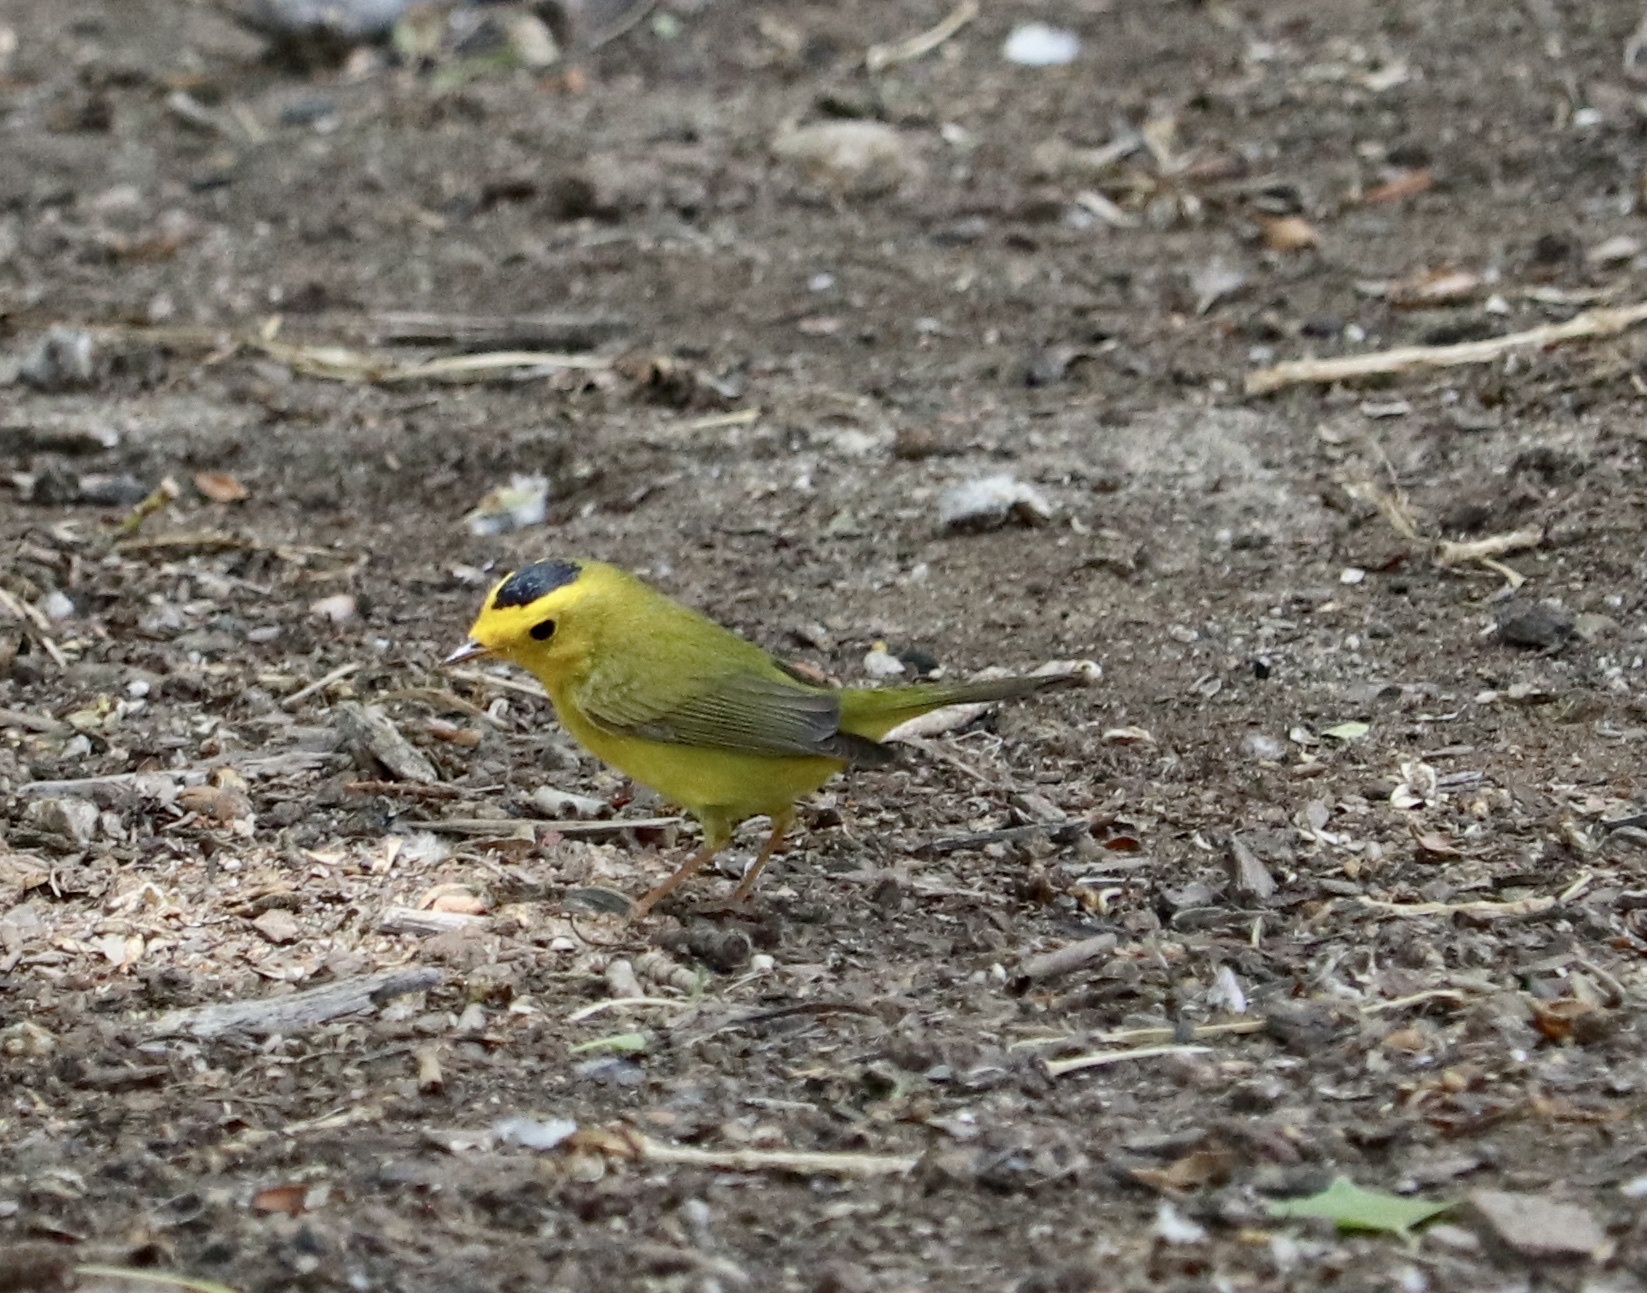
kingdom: Animalia
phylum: Chordata
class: Aves
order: Passeriformes
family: Parulidae
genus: Cardellina
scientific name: Cardellina pusilla
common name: Wilson's warbler
